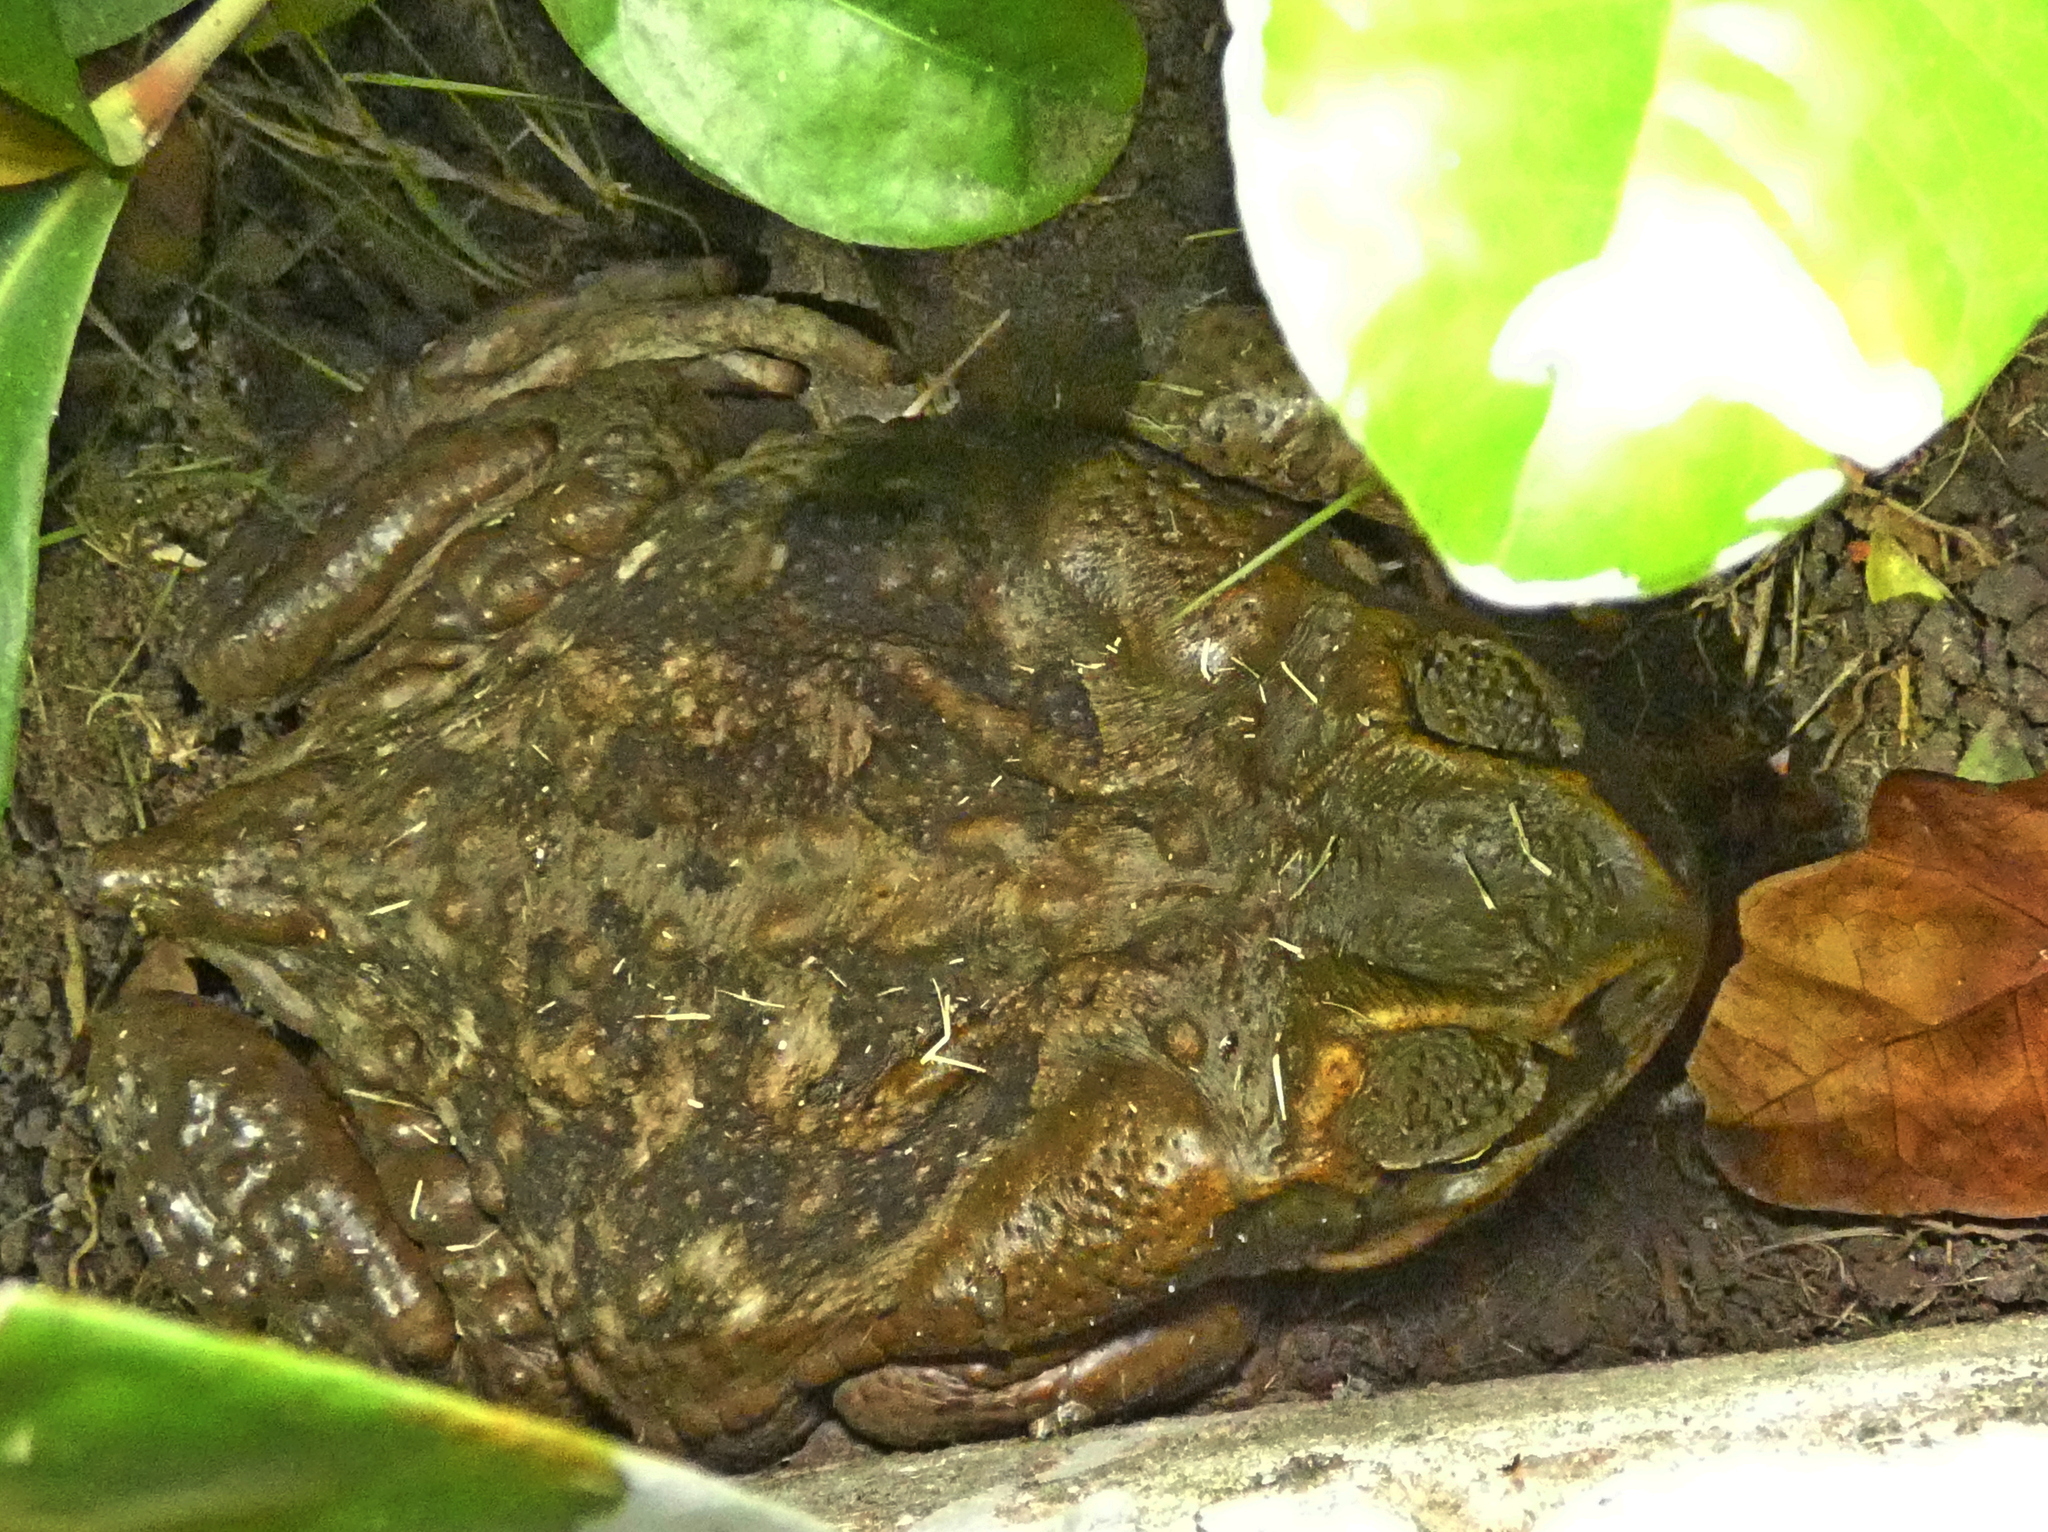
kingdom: Animalia
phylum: Chordata
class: Amphibia
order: Anura
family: Bufonidae
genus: Rhinella
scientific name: Rhinella diptycha
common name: Cope's toad
